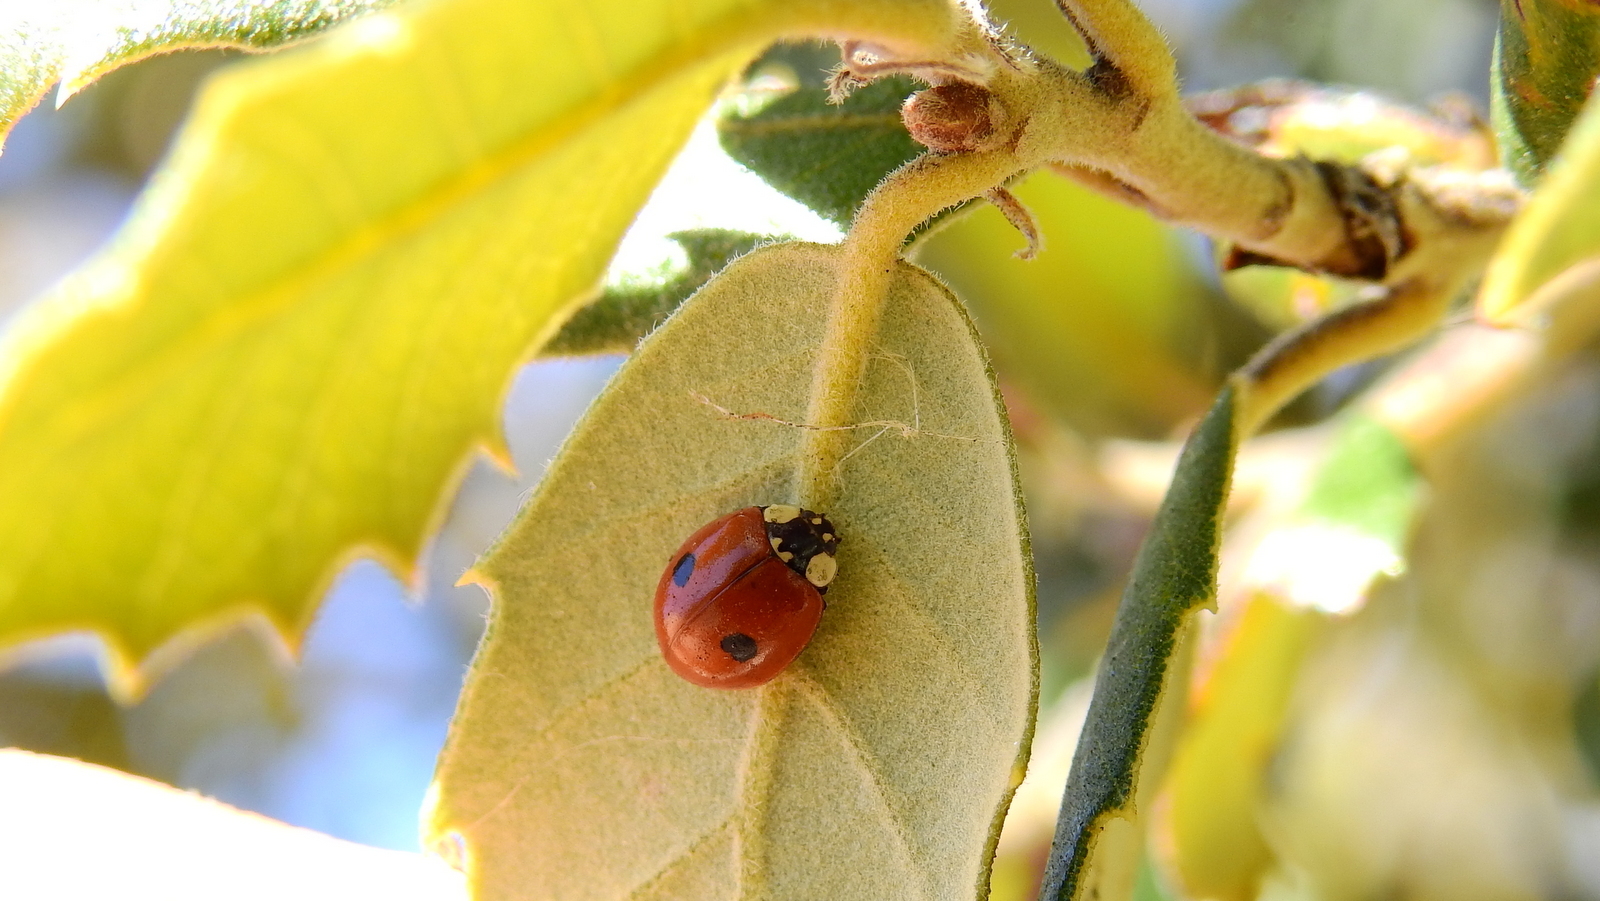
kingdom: Animalia
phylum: Arthropoda
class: Insecta
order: Coleoptera
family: Coccinellidae
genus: Adalia
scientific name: Adalia bipunctata
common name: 2-spot ladybird
